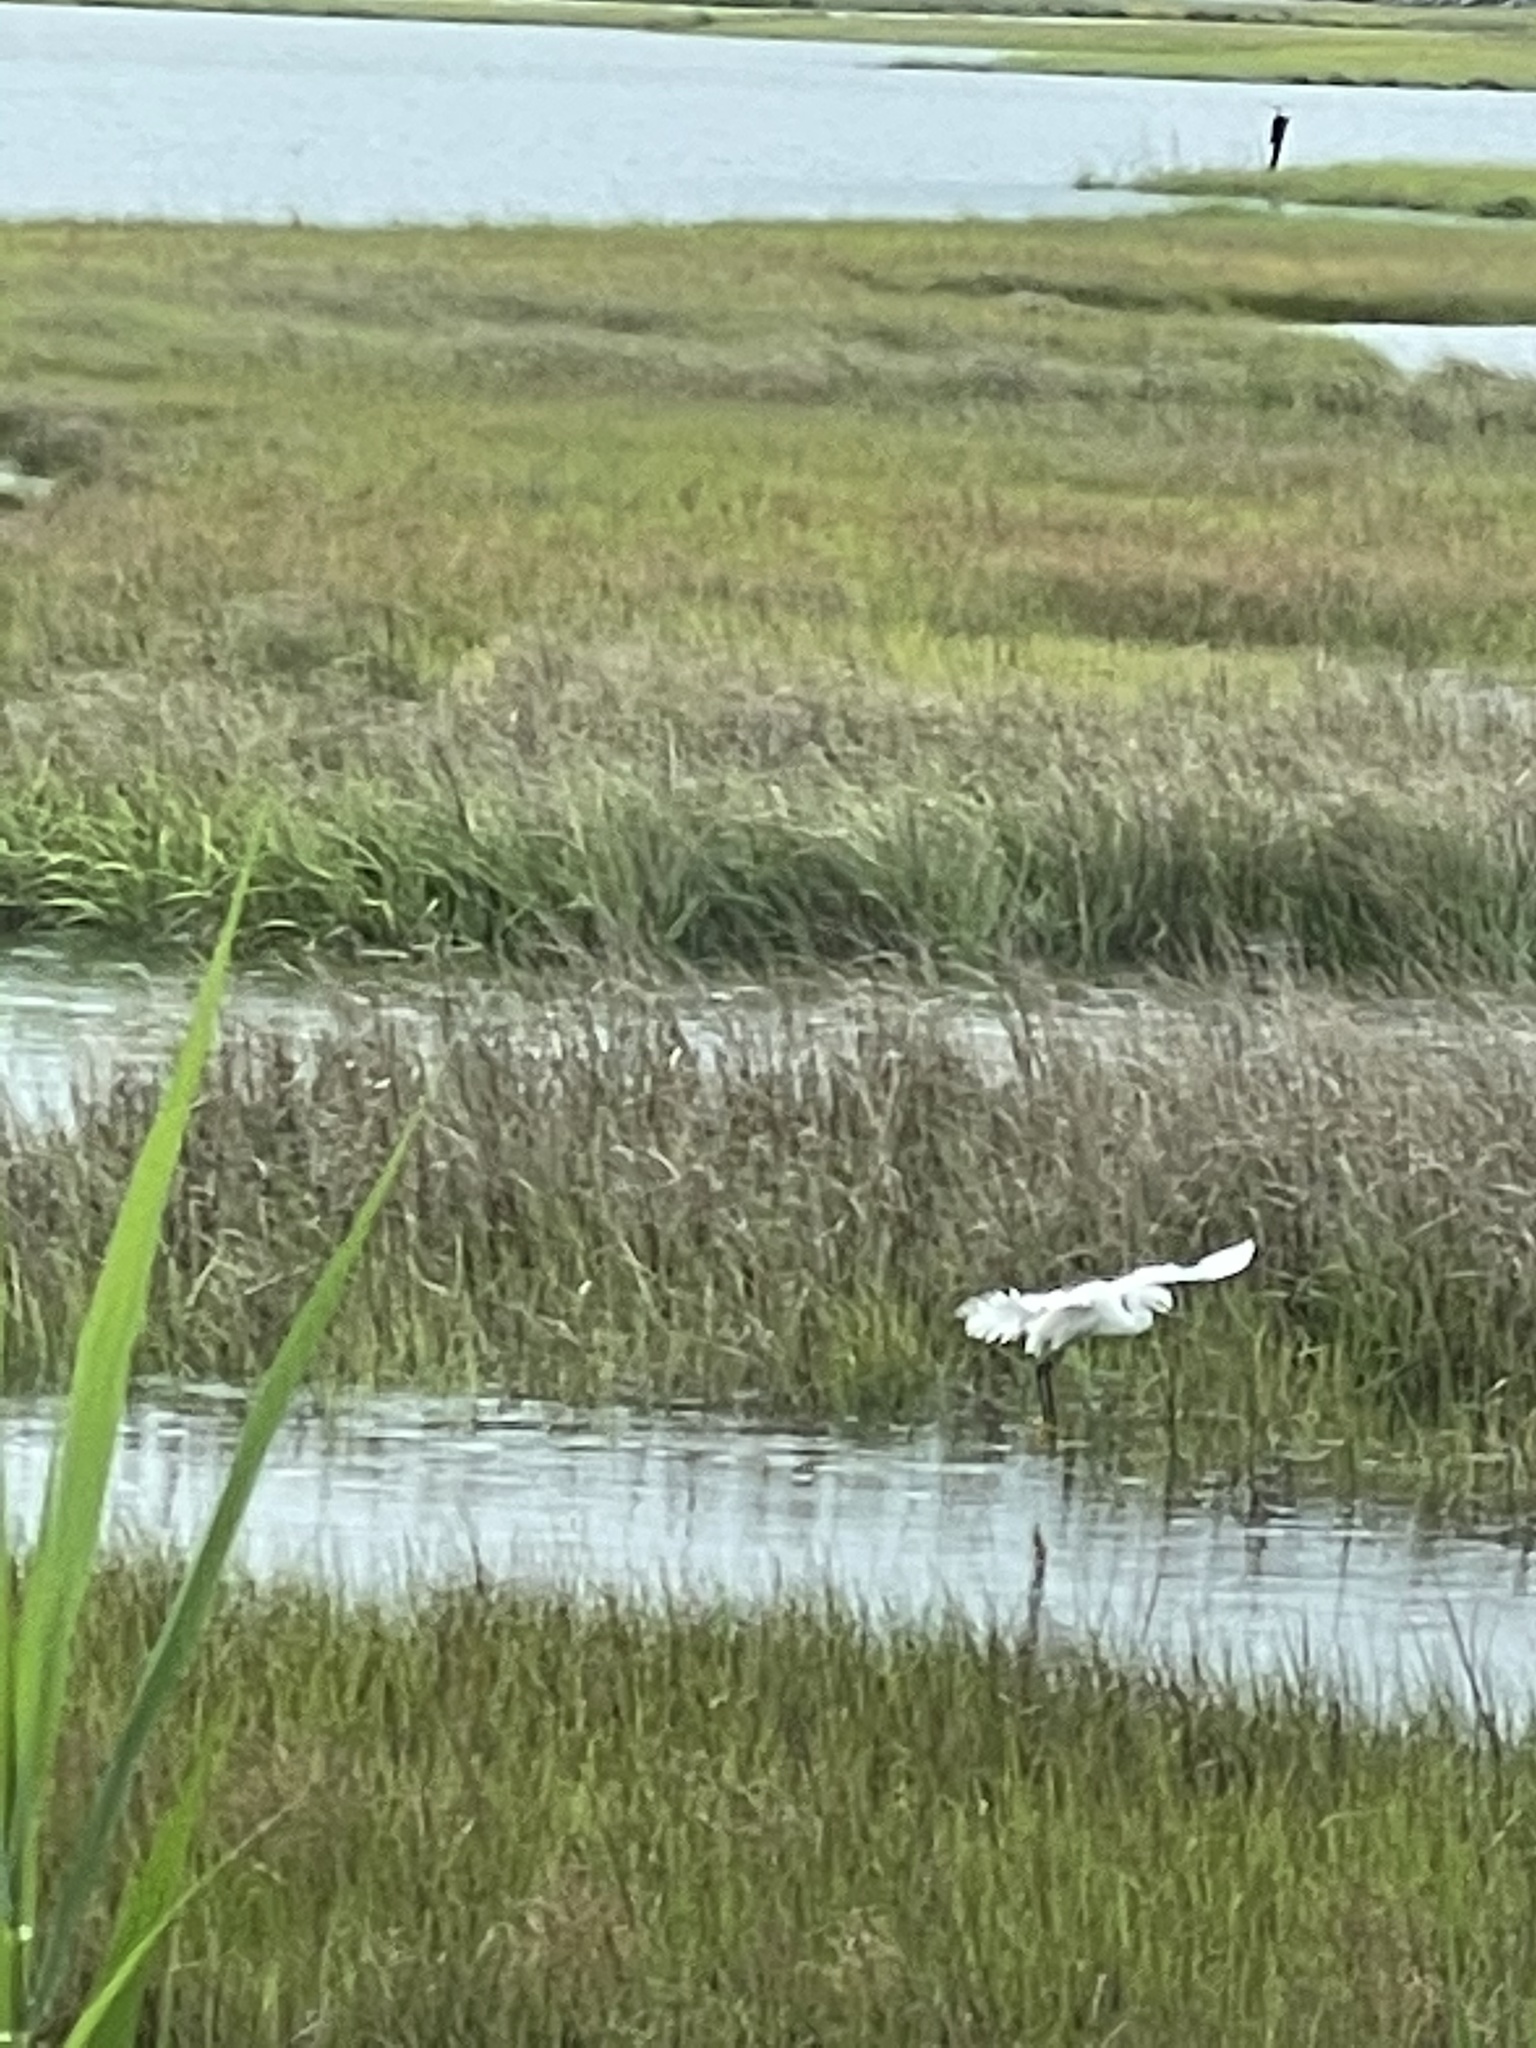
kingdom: Animalia
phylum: Chordata
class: Aves
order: Pelecaniformes
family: Ardeidae
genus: Egretta
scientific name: Egretta thula
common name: Snowy egret
